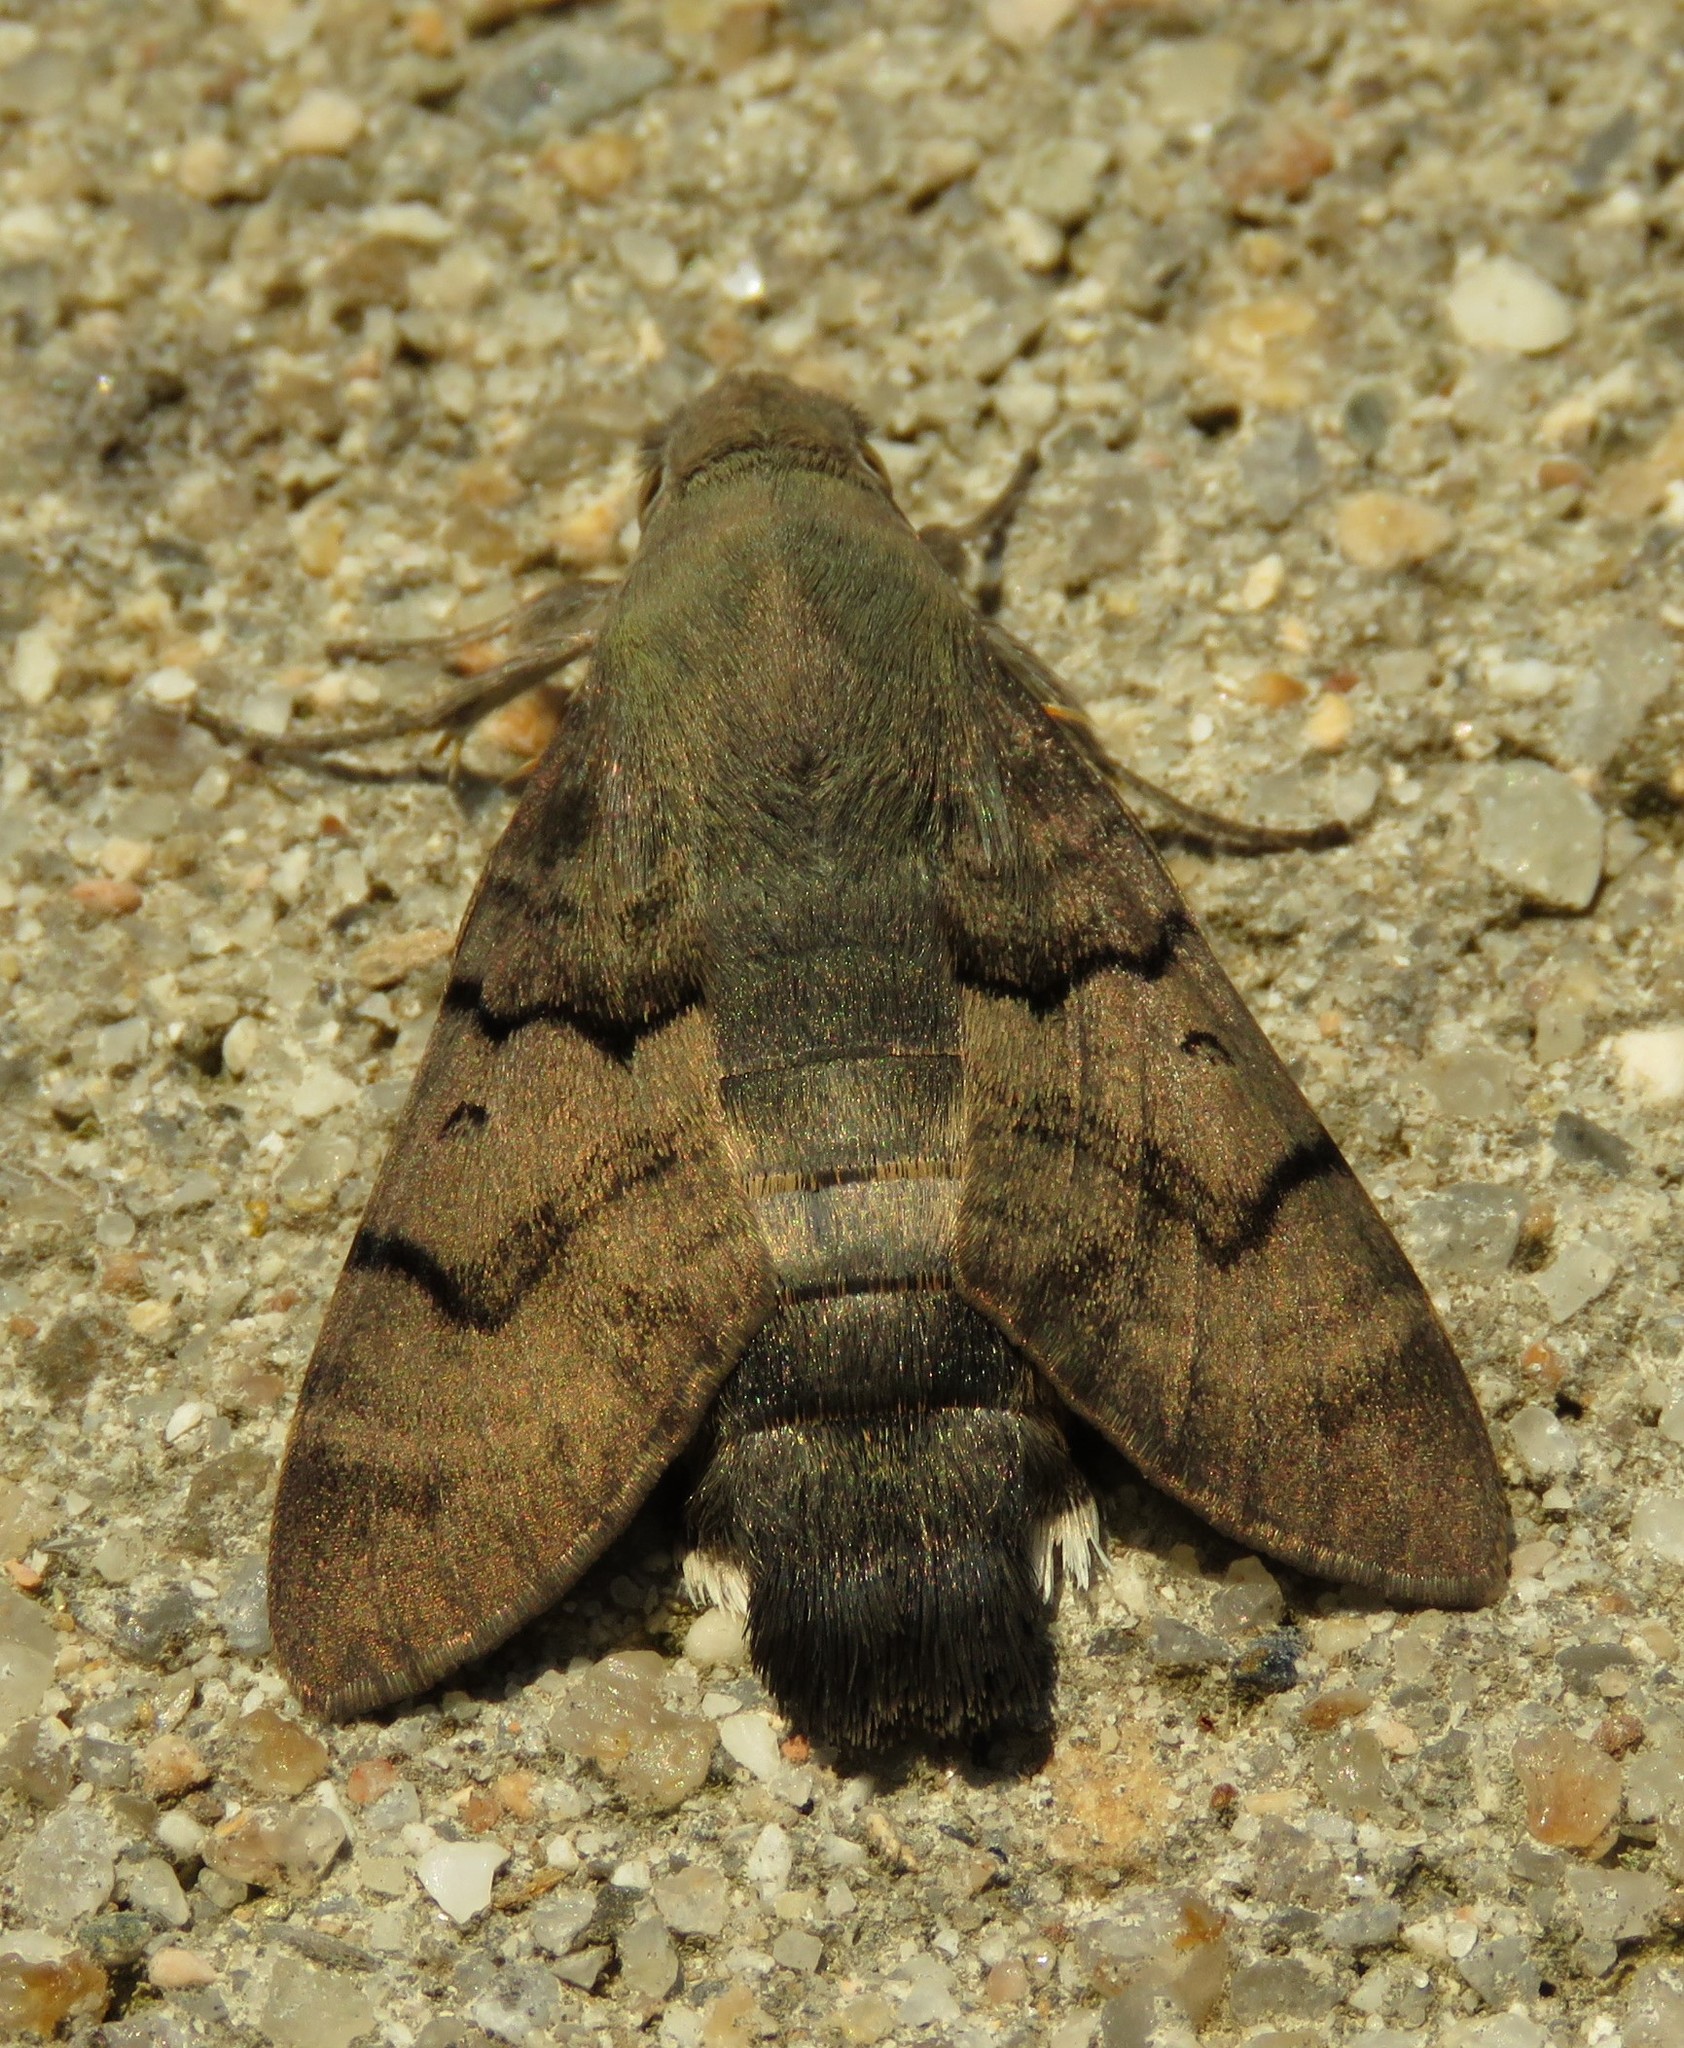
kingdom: Animalia
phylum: Arthropoda
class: Insecta
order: Lepidoptera
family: Sphingidae
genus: Macroglossum
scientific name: Macroglossum stellatarum
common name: Humming-bird hawk-moth
